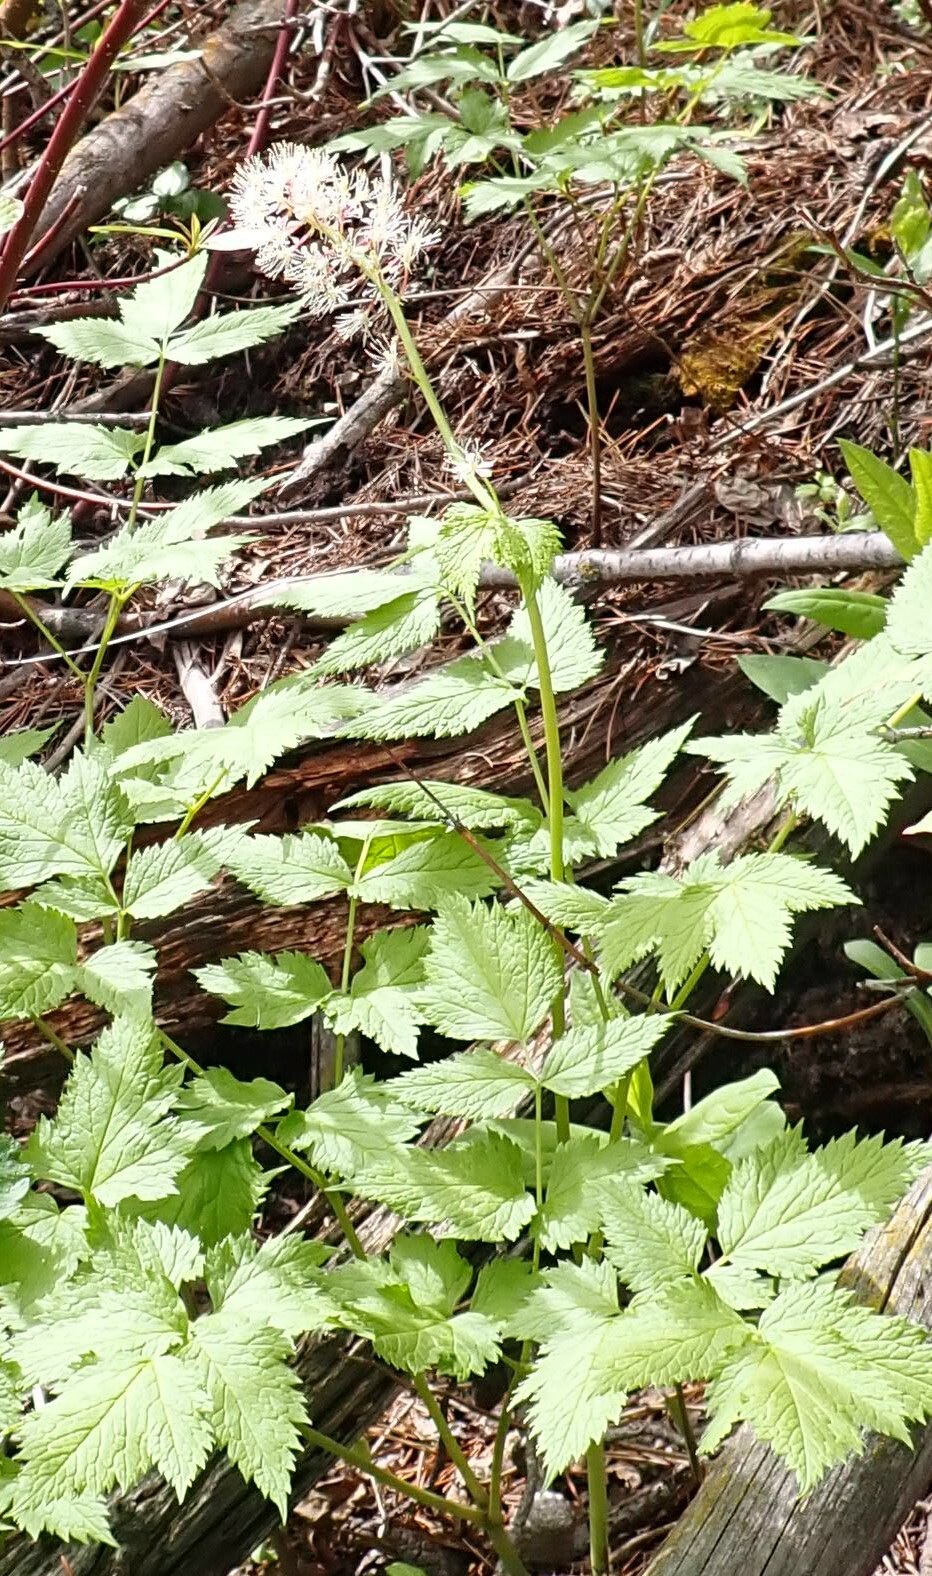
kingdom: Plantae
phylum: Tracheophyta
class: Magnoliopsida
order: Ranunculales
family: Ranunculaceae
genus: Actaea
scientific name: Actaea rubra
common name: Red baneberry
